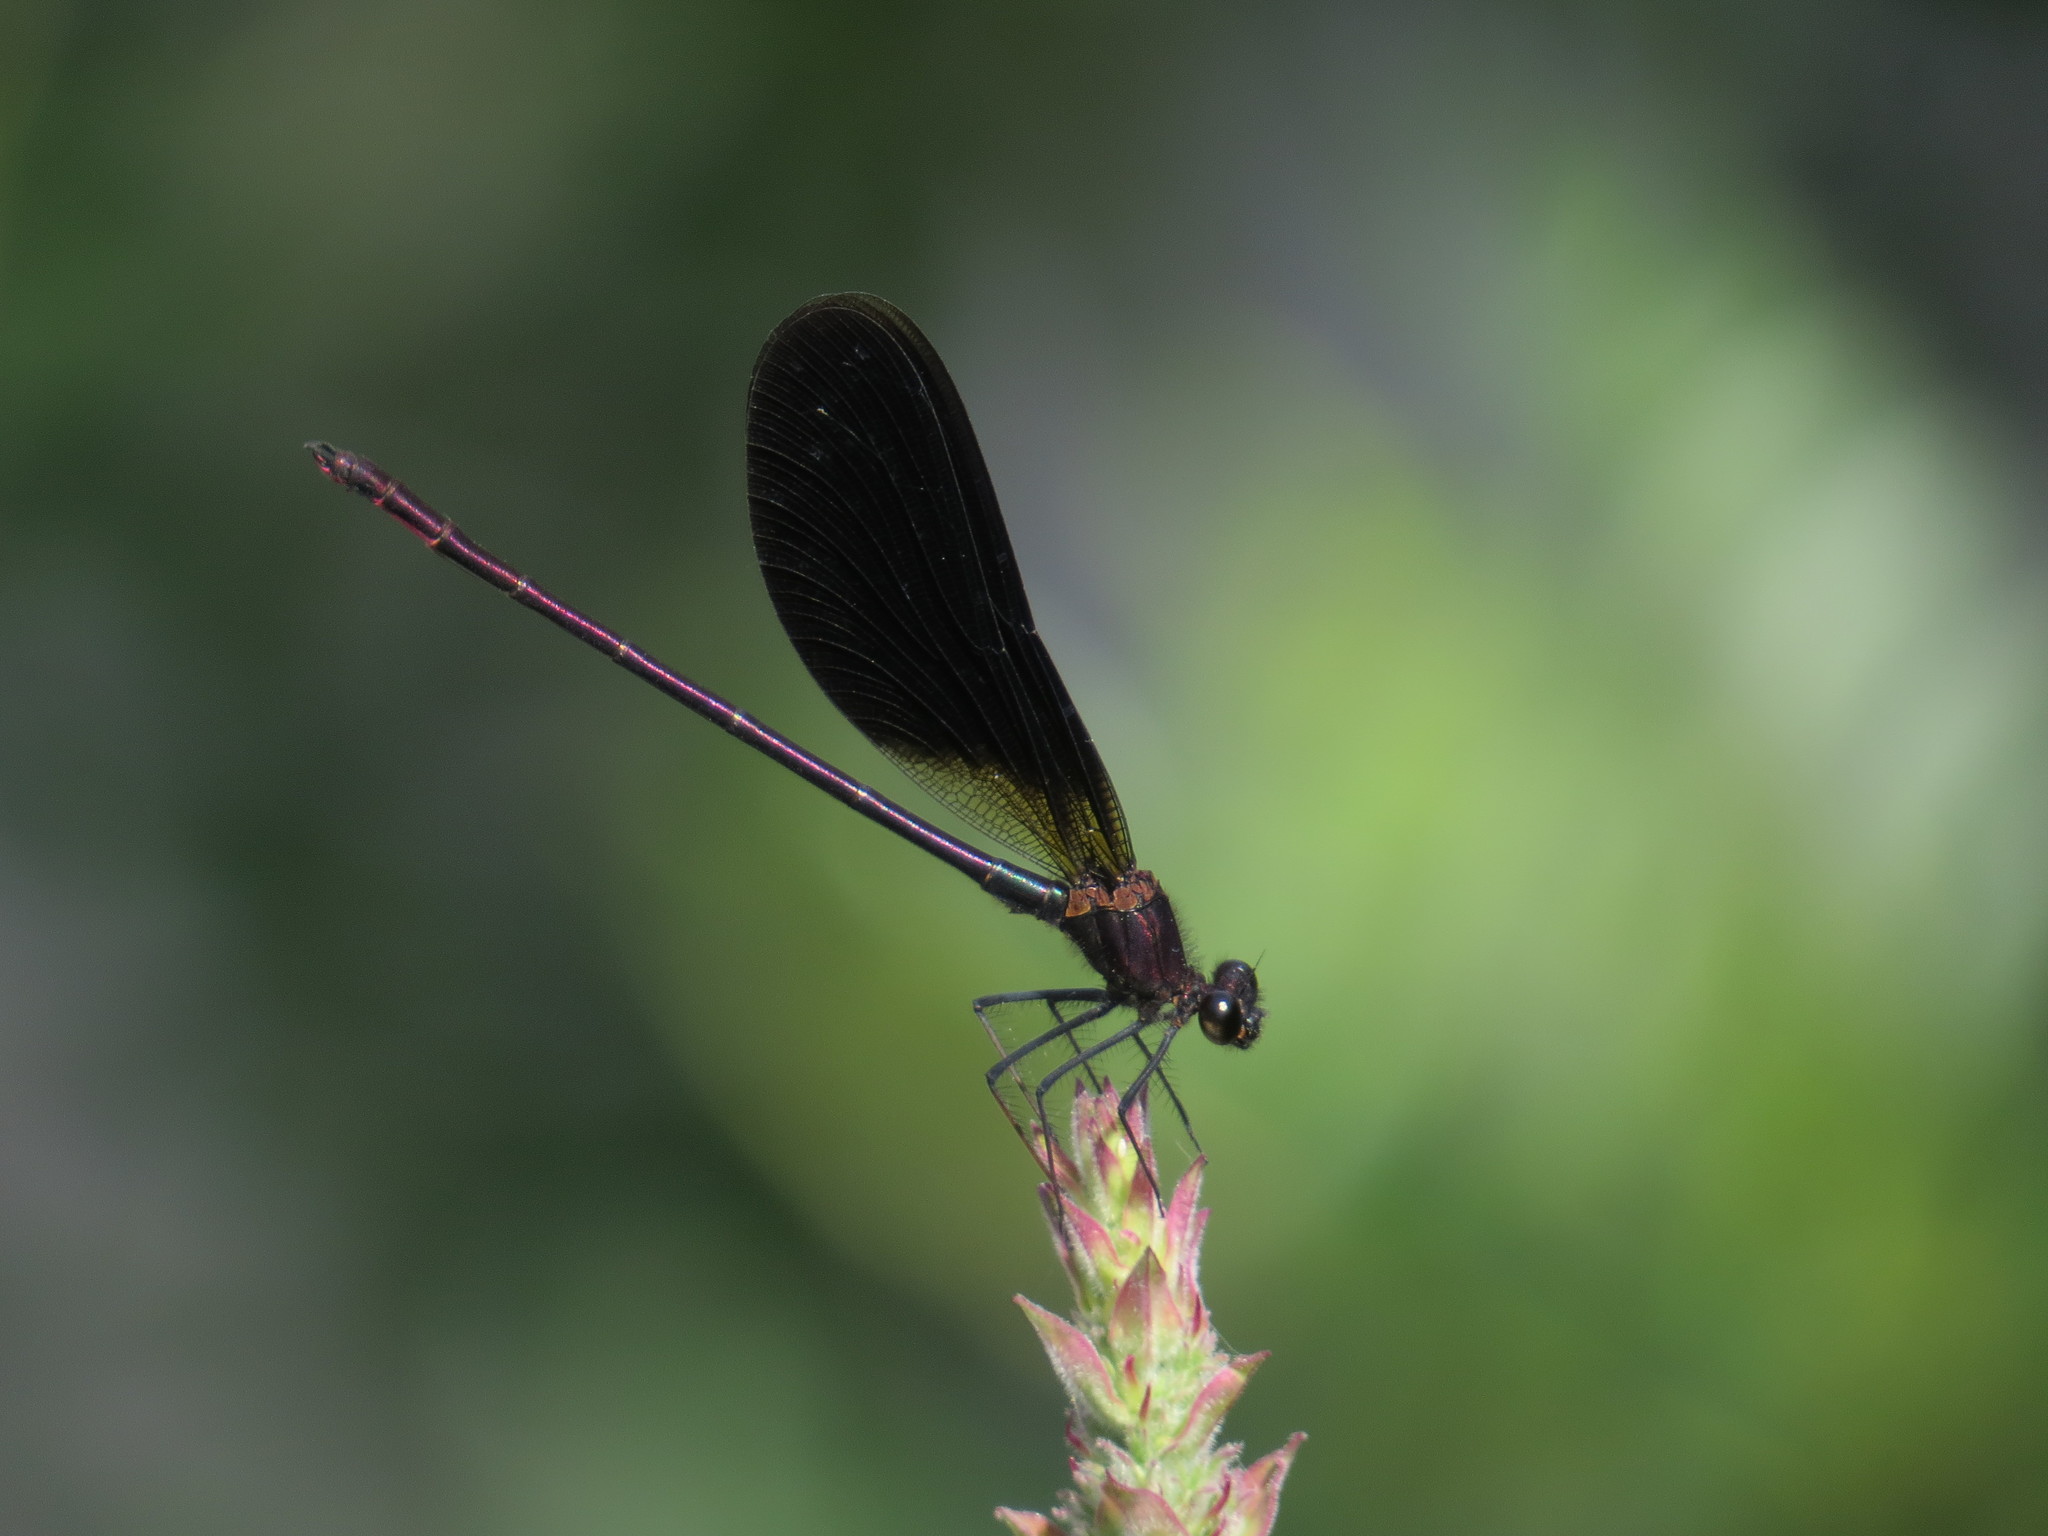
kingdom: Animalia
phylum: Arthropoda
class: Insecta
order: Odonata
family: Calopterygidae
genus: Calopteryx
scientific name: Calopteryx haemorrhoidalis
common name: Copper demoiselle
